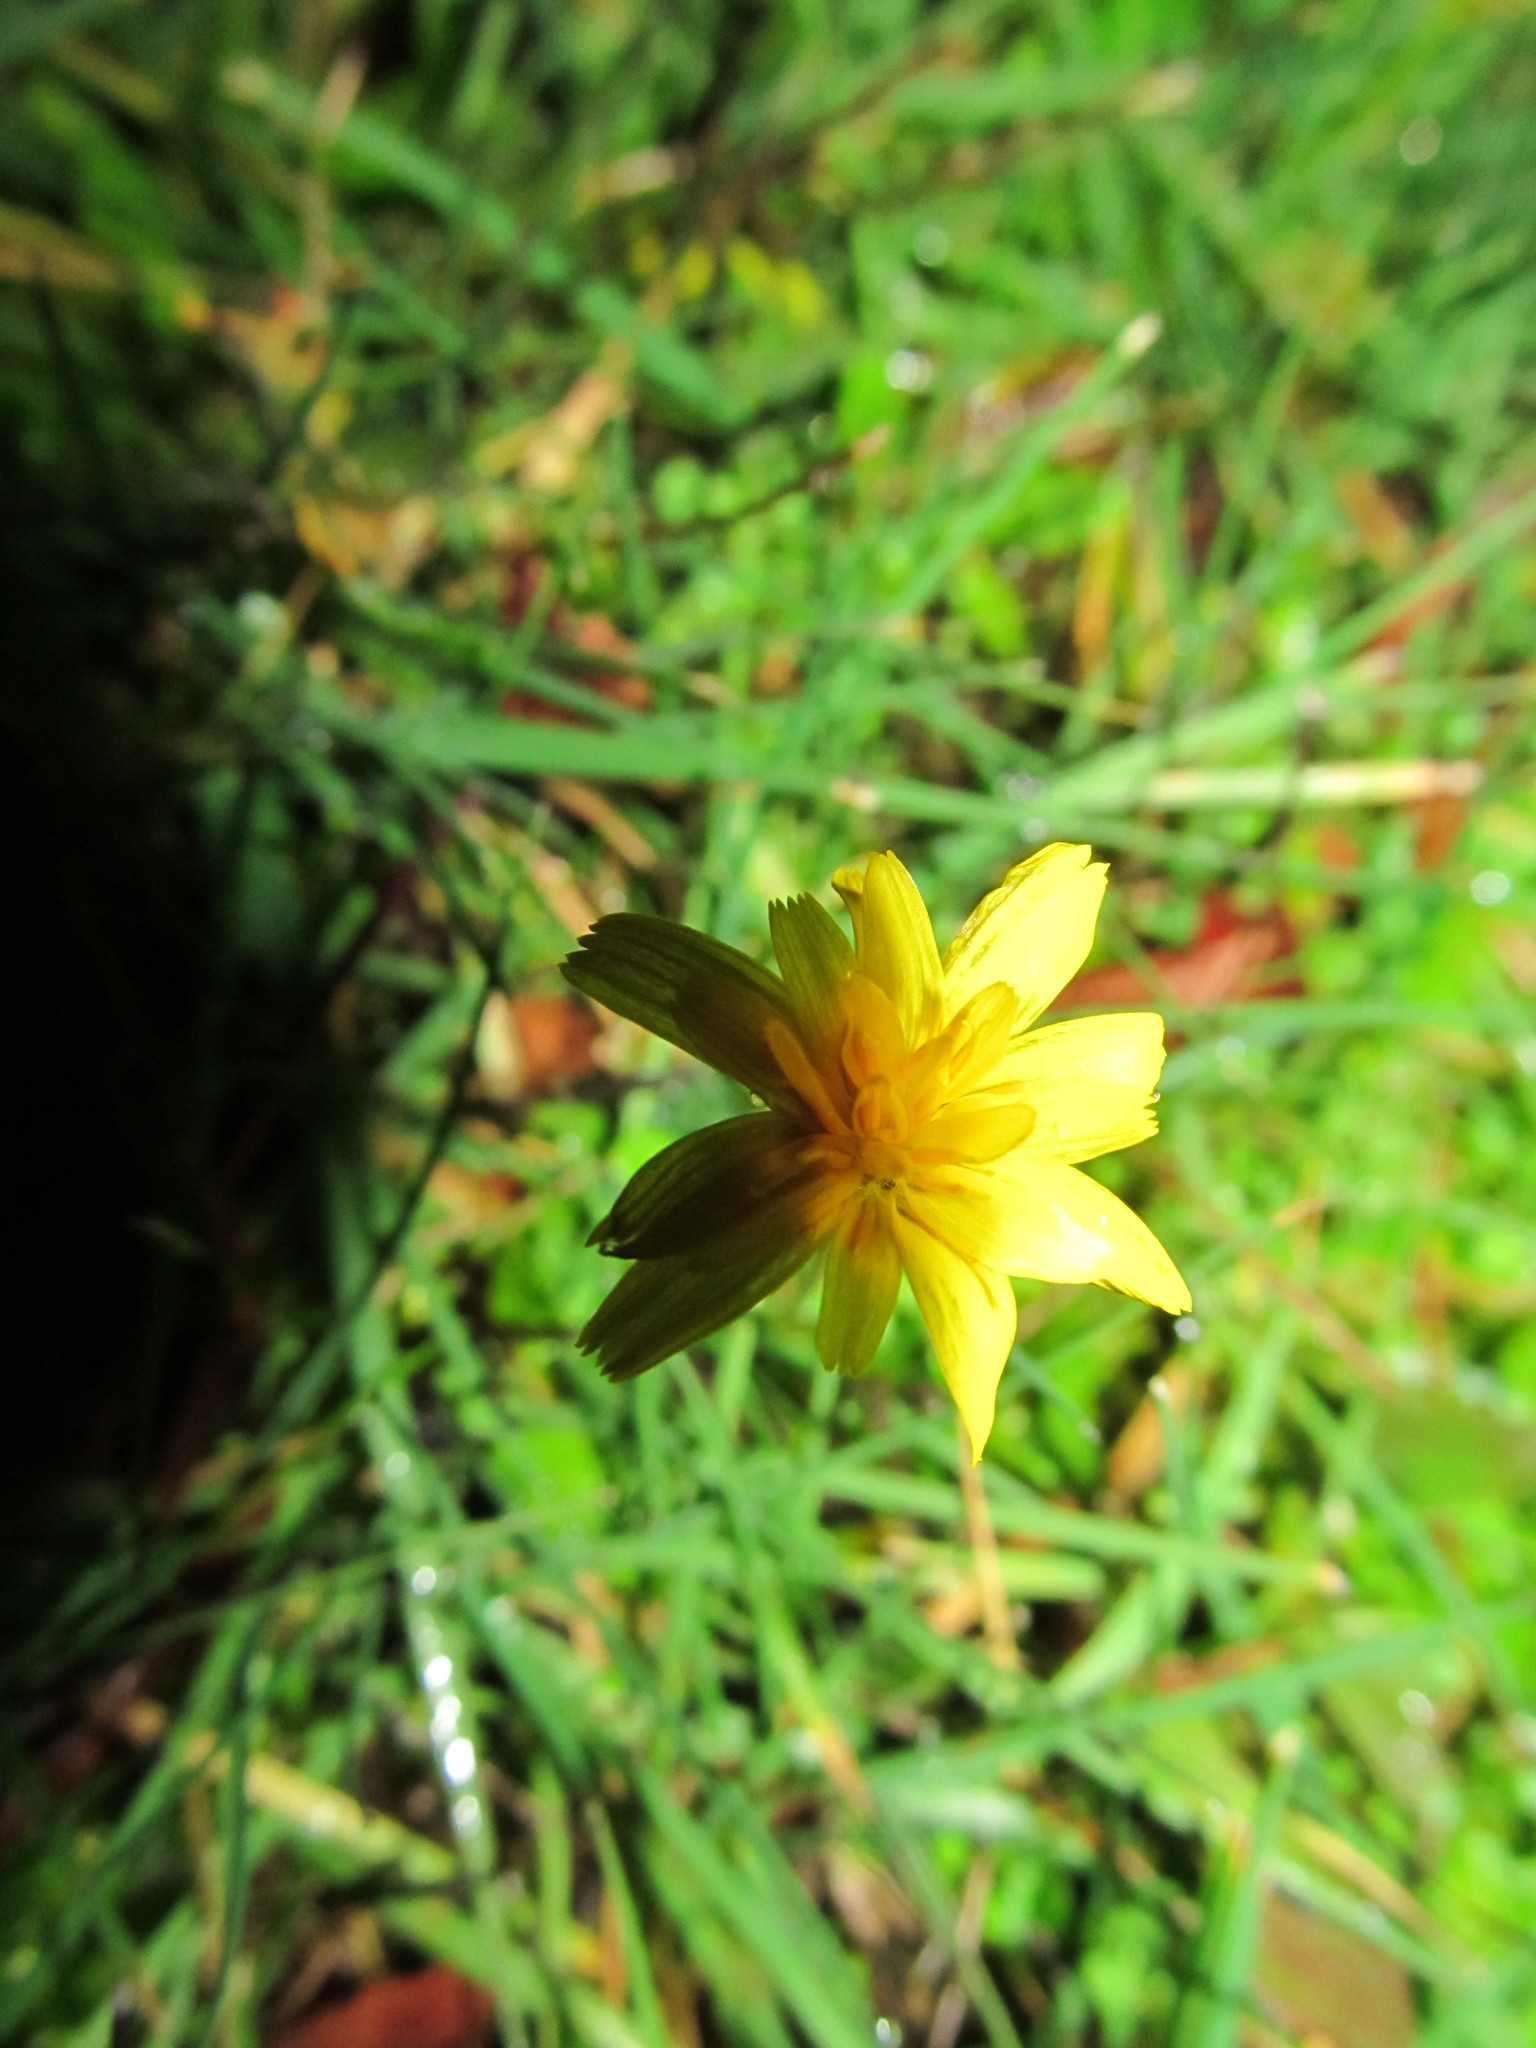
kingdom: Plantae
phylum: Tracheophyta
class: Magnoliopsida
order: Asterales
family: Asteraceae
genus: Hypochaeris
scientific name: Hypochaeris radicata
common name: Flatweed
